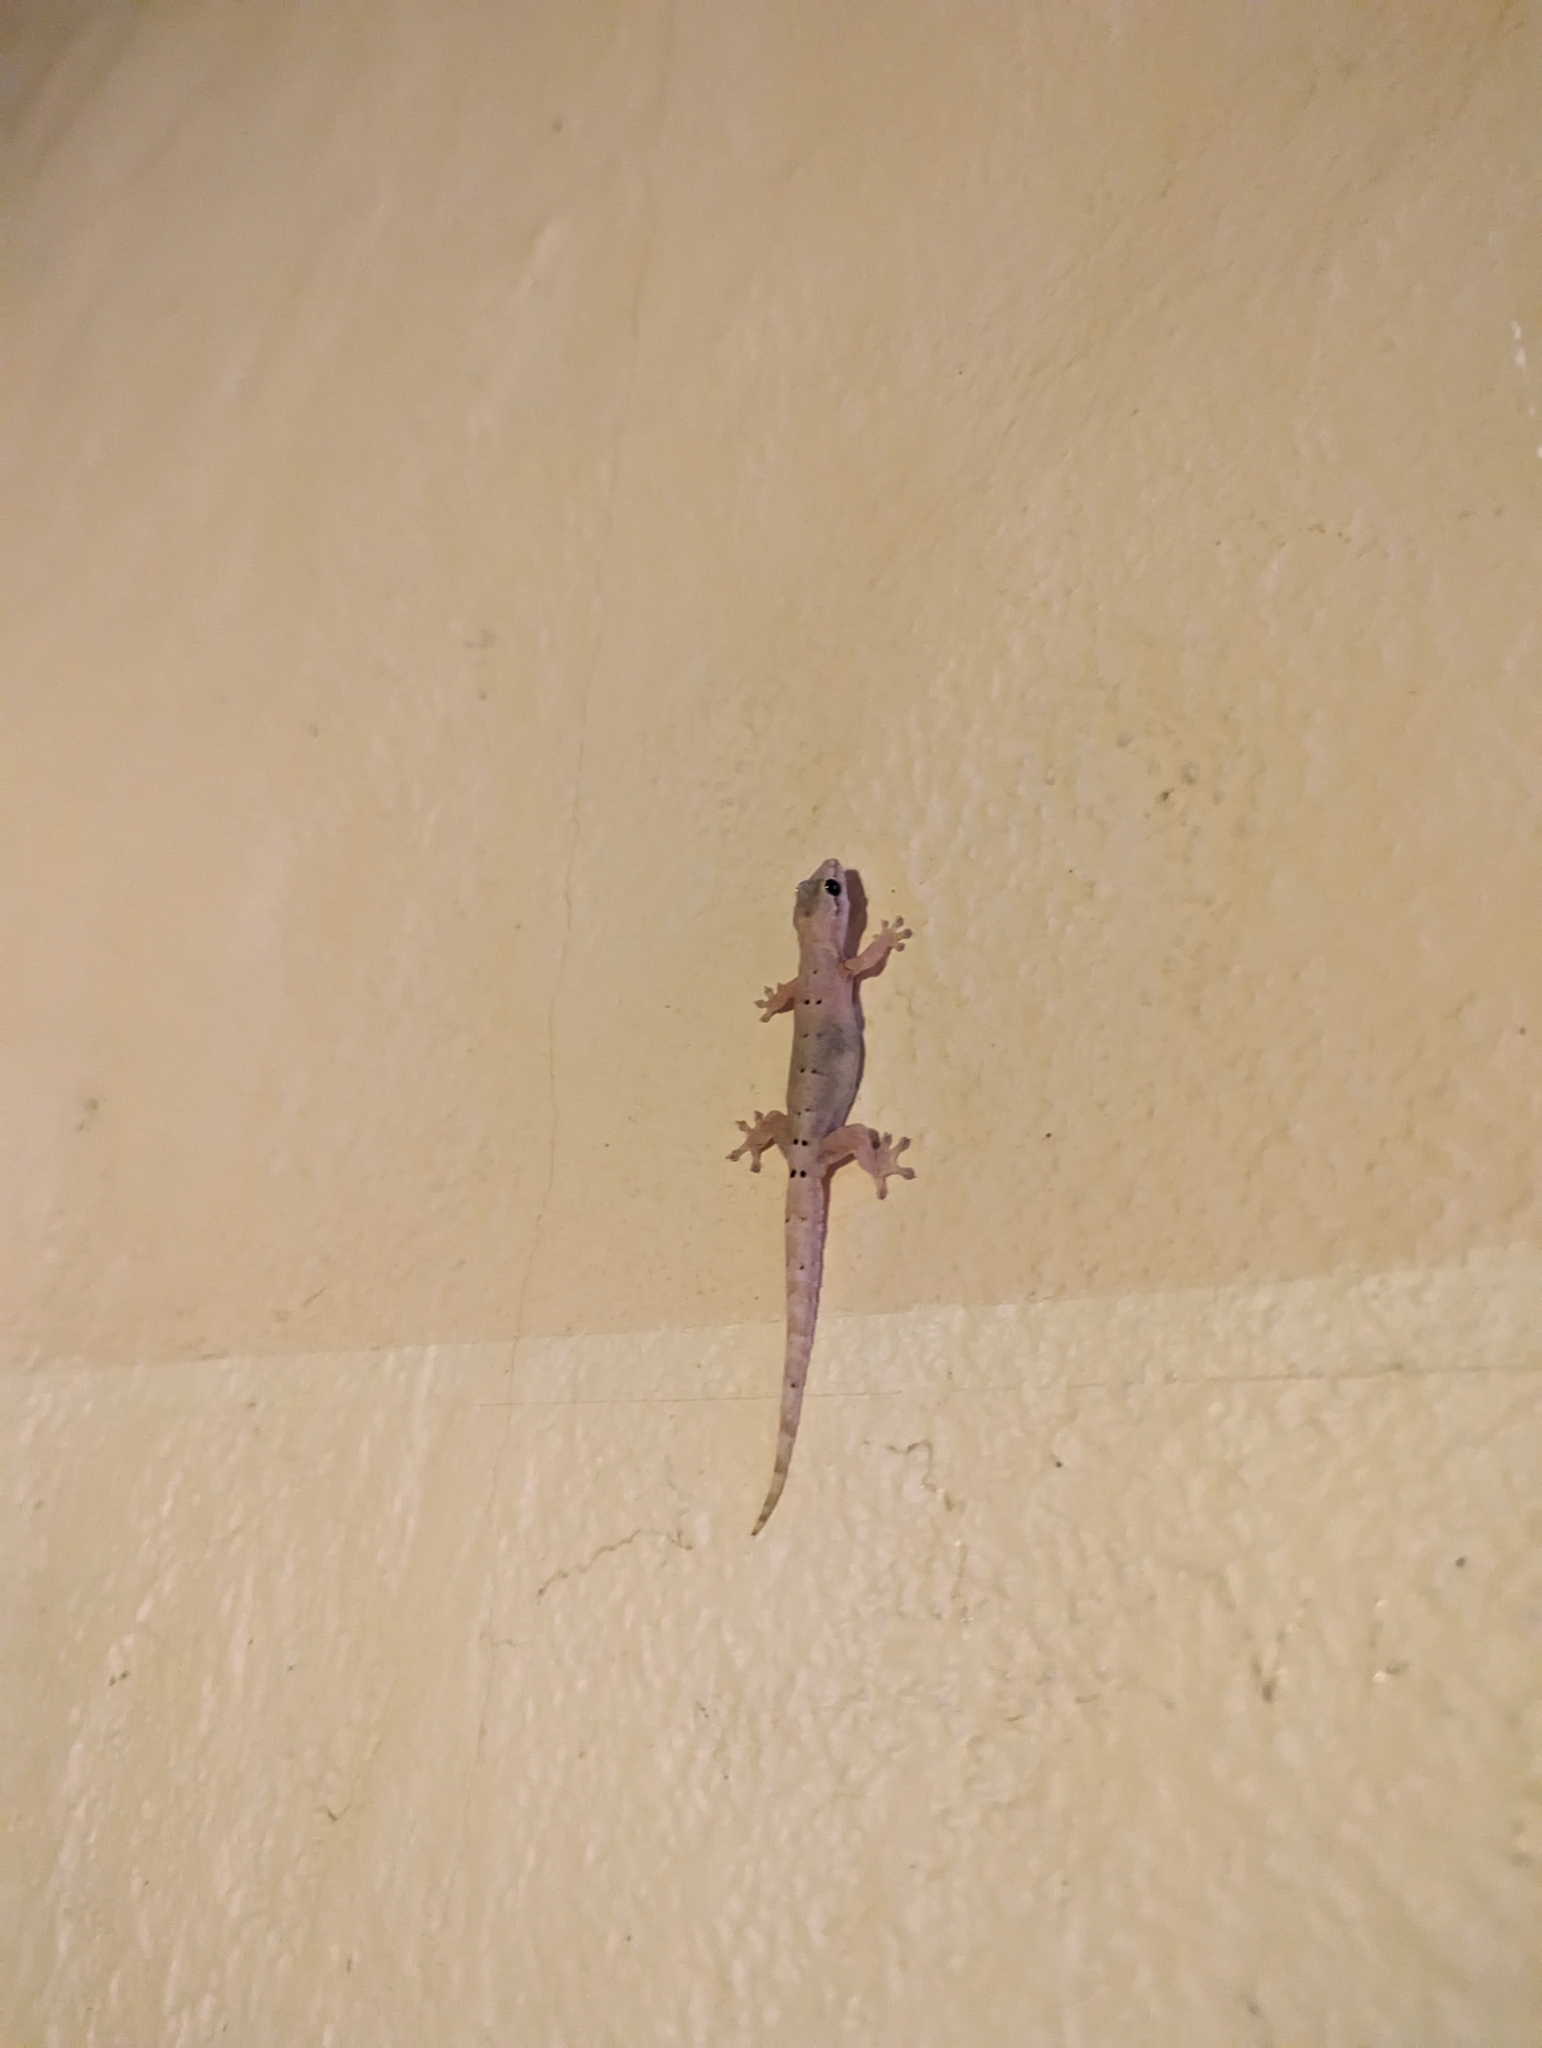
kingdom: Animalia
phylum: Chordata
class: Squamata
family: Gekkonidae
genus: Lepidodactylus
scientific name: Lepidodactylus lugubris
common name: Mourning gecko
